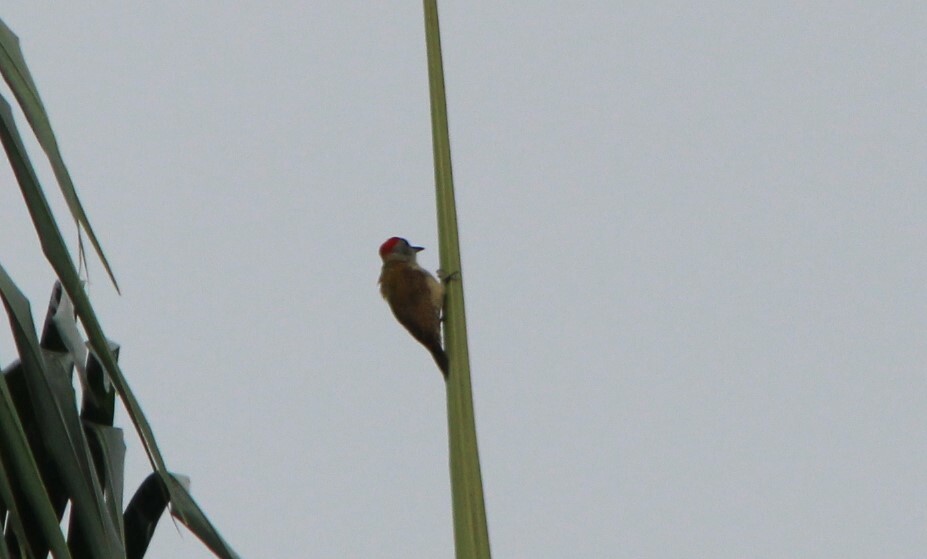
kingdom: Animalia
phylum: Chordata
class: Aves
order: Piciformes
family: Picidae
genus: Dendropicos
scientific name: Dendropicos goertae
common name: African grey woodpecker
